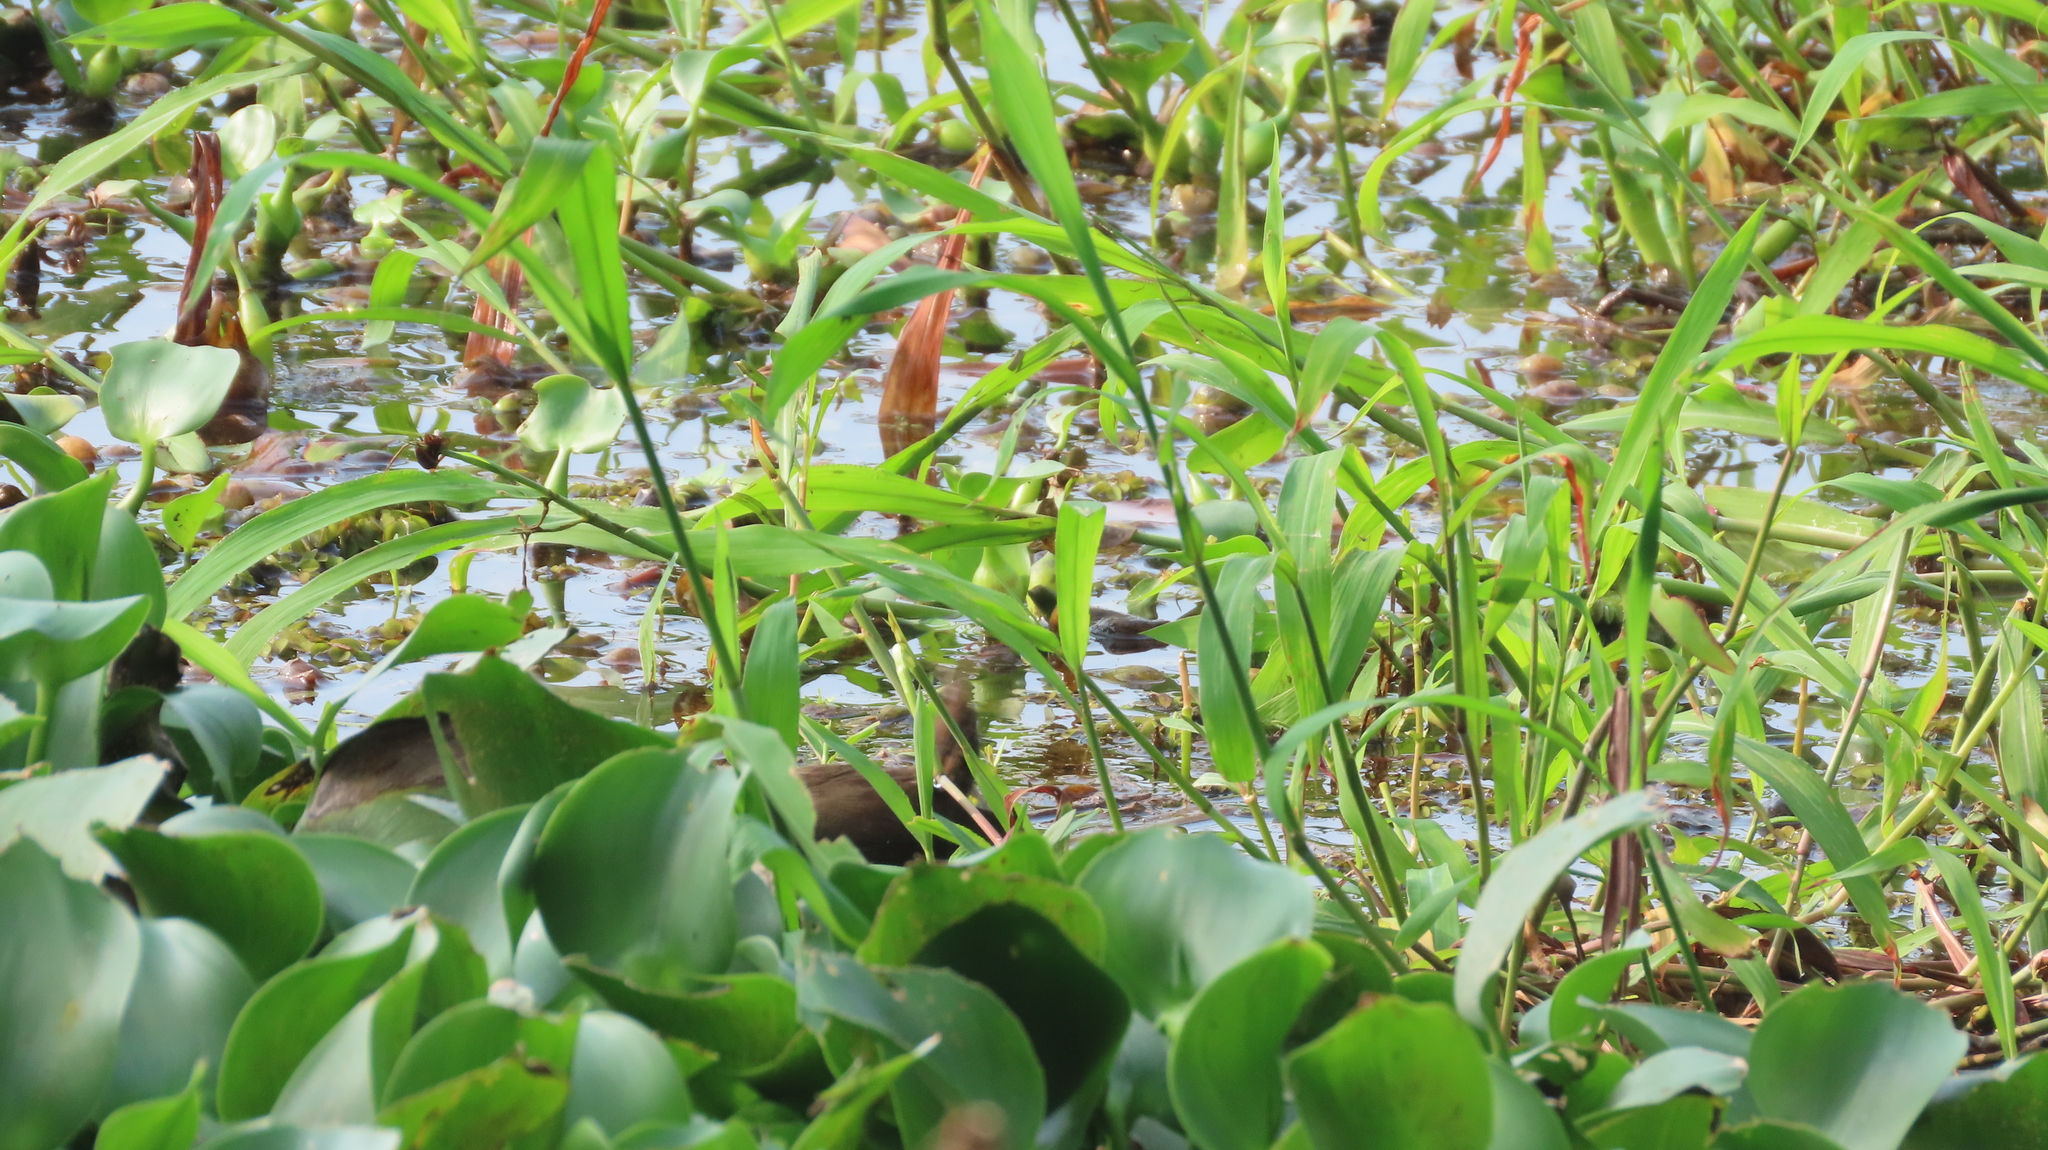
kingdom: Animalia
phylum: Chordata
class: Aves
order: Gruiformes
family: Rallidae
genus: Porzana
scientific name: Porzana fusca
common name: Ruddy-breasted crake
